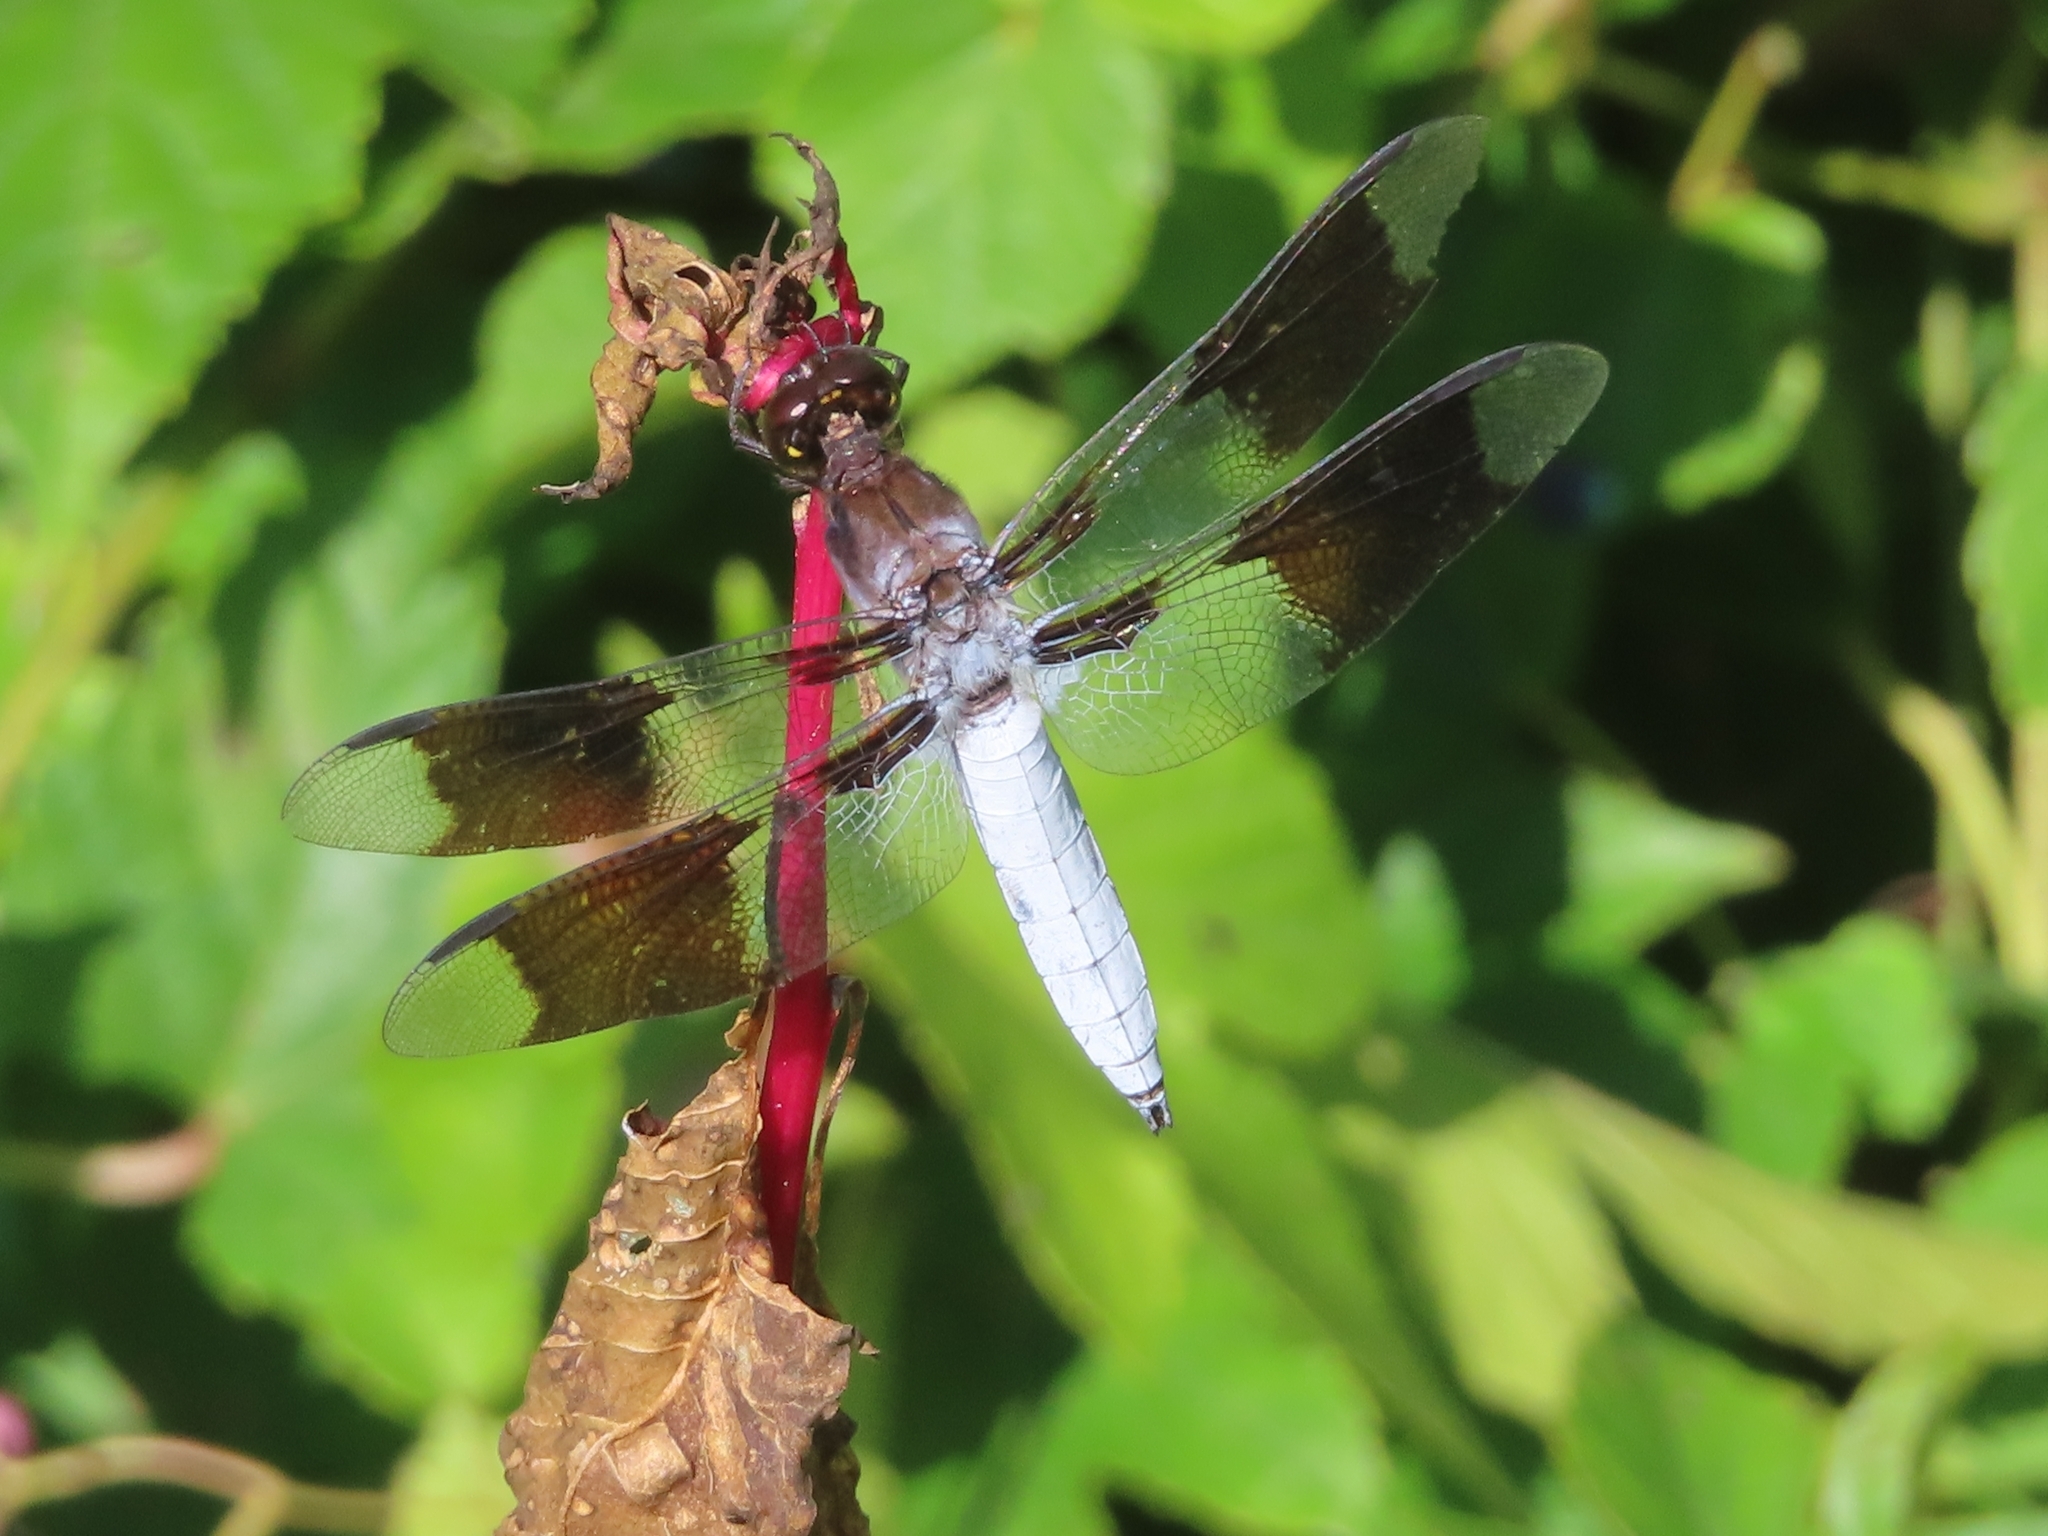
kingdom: Animalia
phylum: Arthropoda
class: Insecta
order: Odonata
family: Libellulidae
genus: Plathemis
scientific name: Plathemis lydia
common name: Common whitetail
